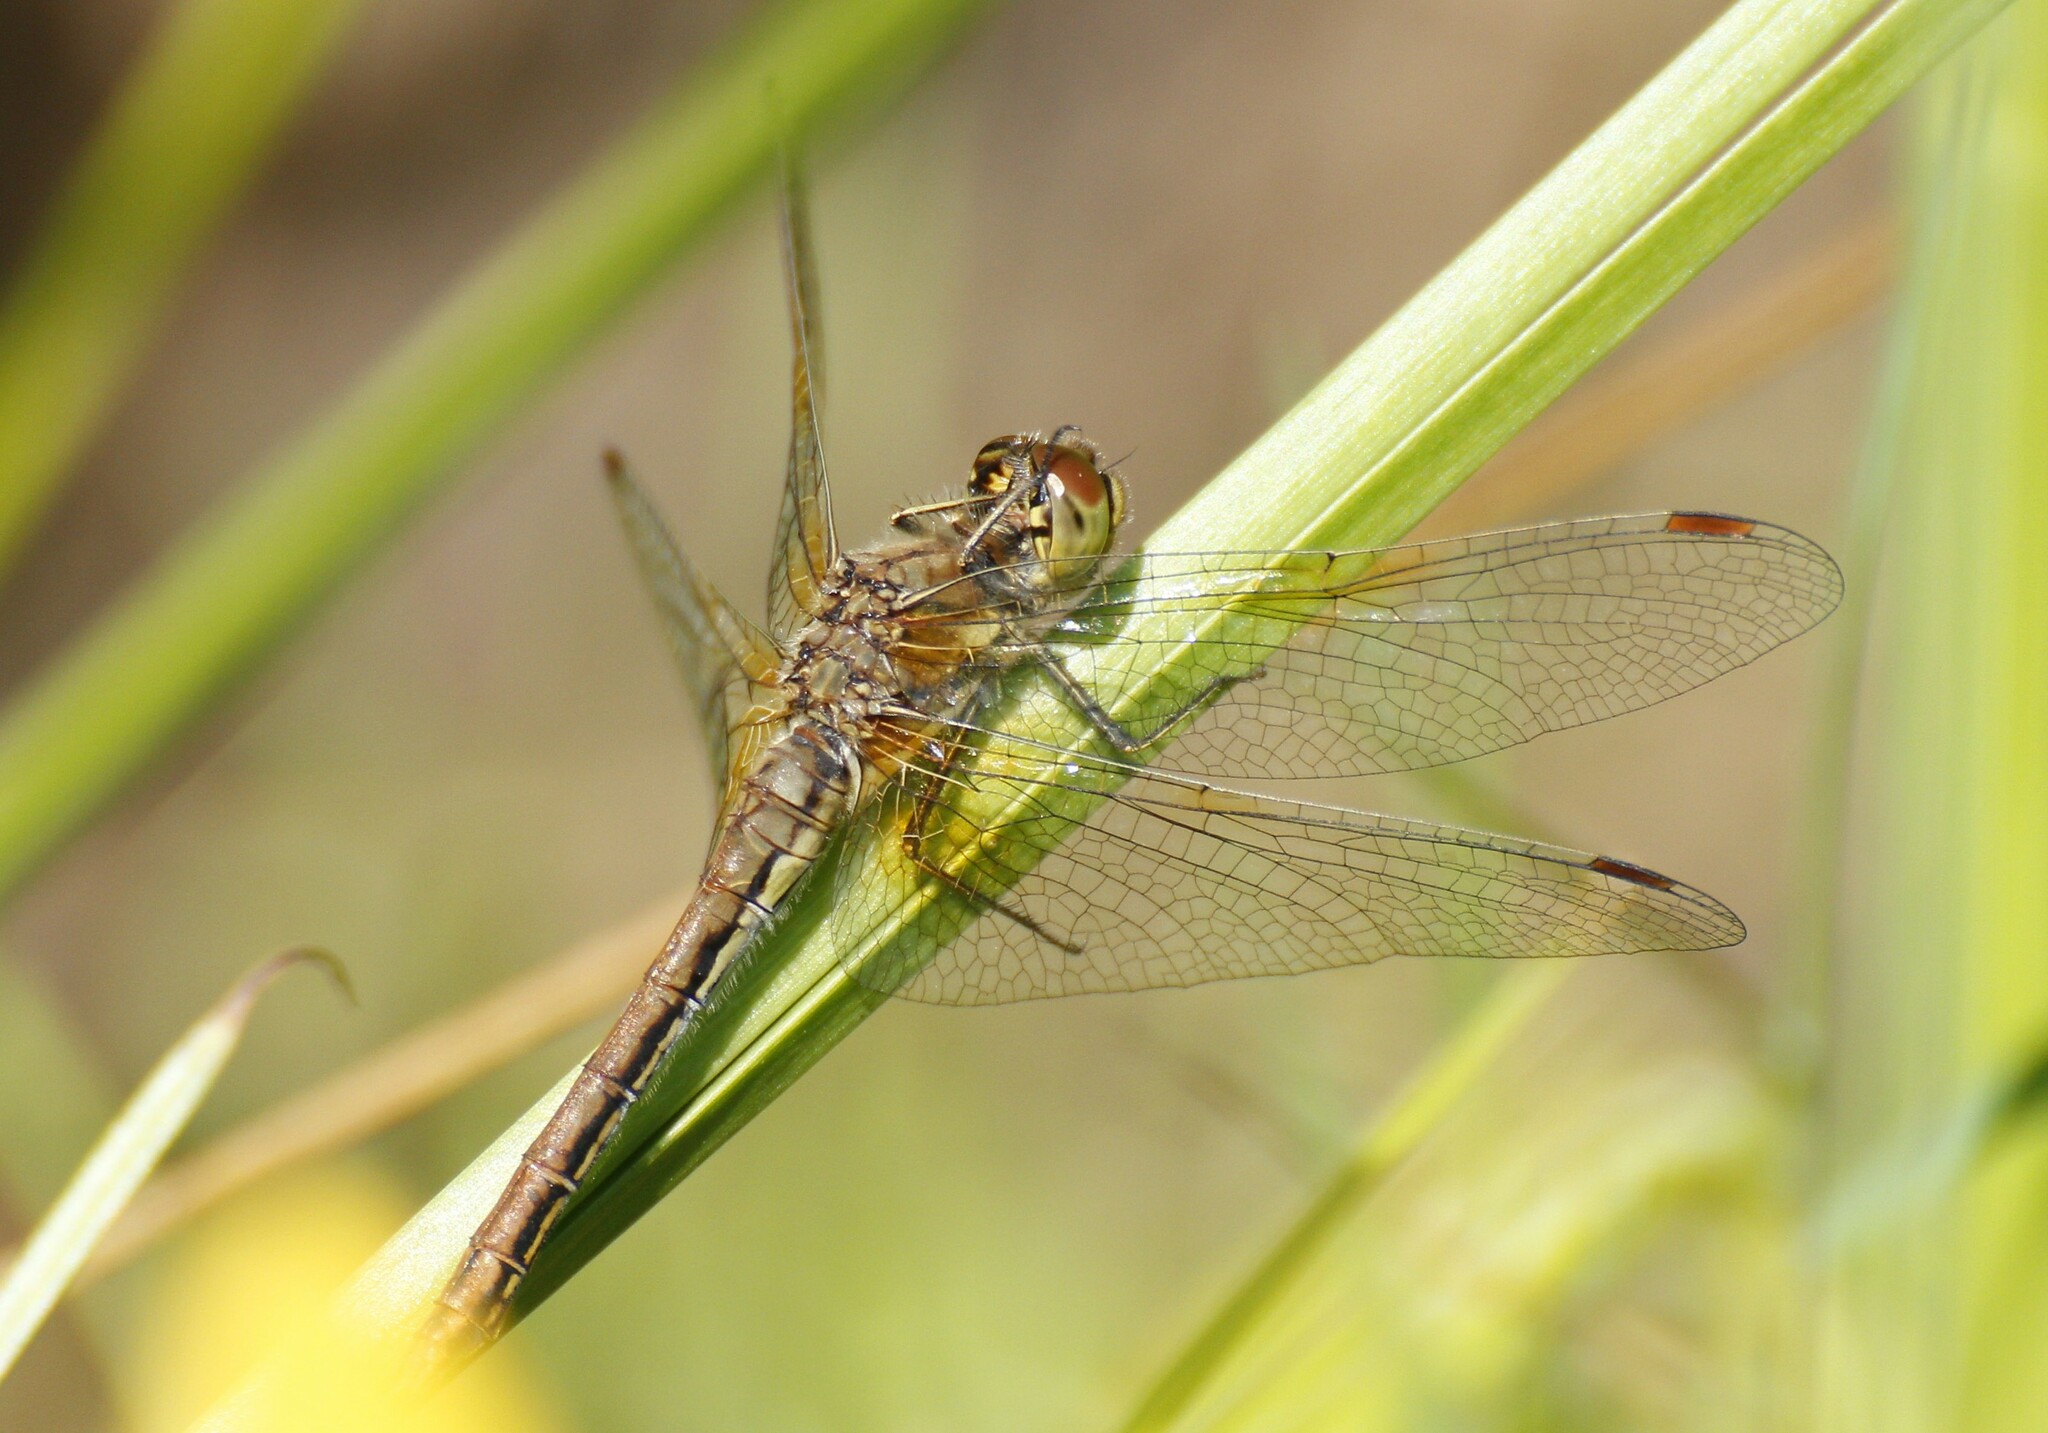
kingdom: Animalia
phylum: Arthropoda
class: Insecta
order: Odonata
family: Libellulidae
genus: Sympetrum
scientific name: Sympetrum flaveolum
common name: Yellow-winged darter
